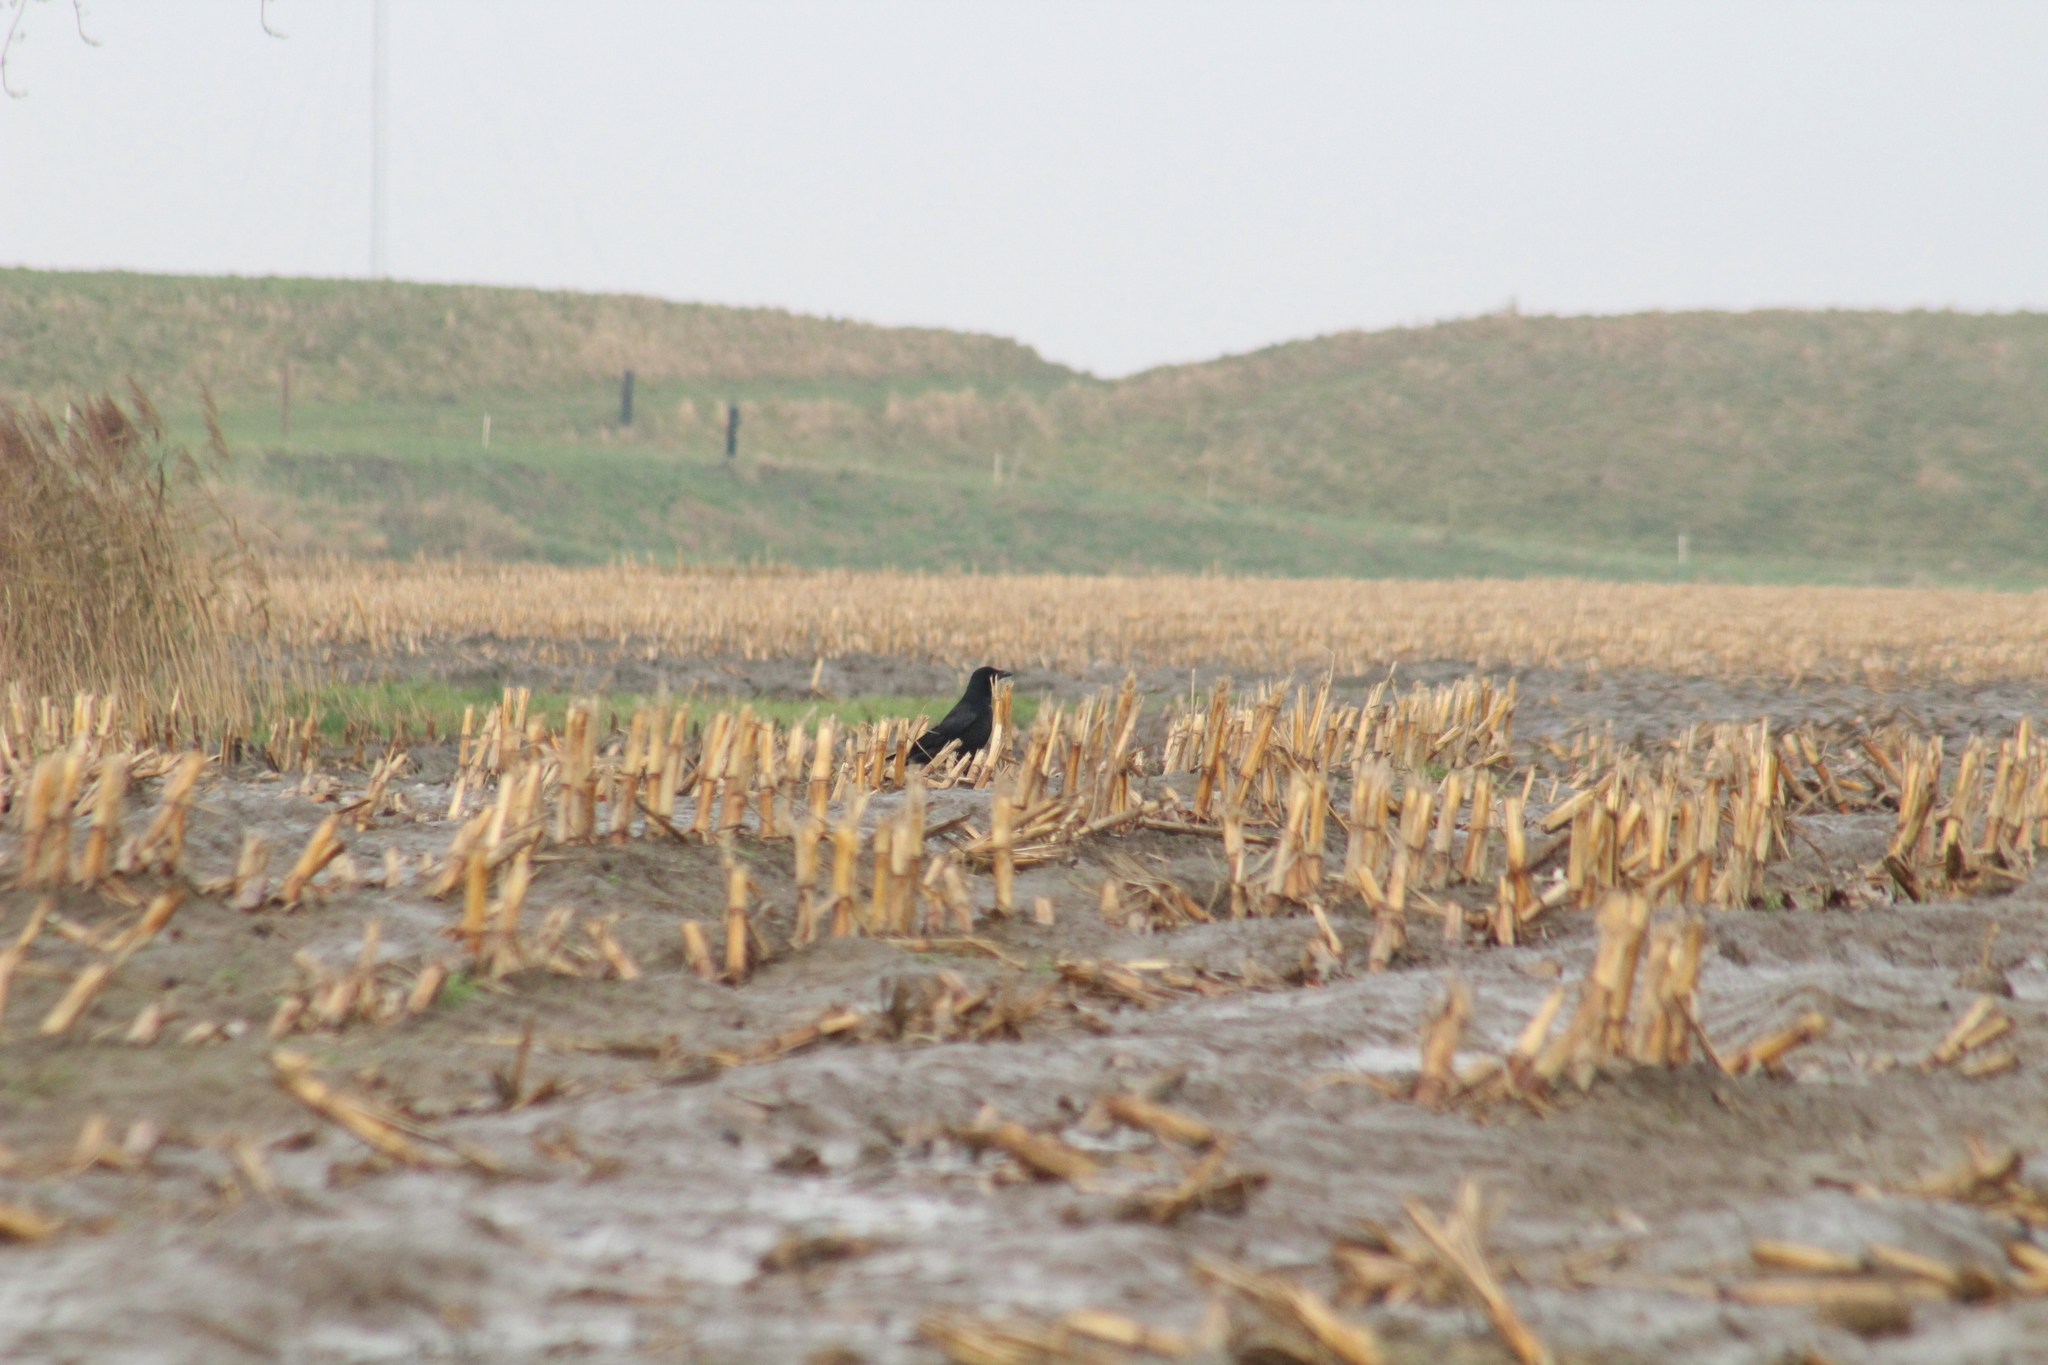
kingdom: Animalia
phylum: Chordata
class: Aves
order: Passeriformes
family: Corvidae
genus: Corvus
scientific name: Corvus corone
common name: Carrion crow
